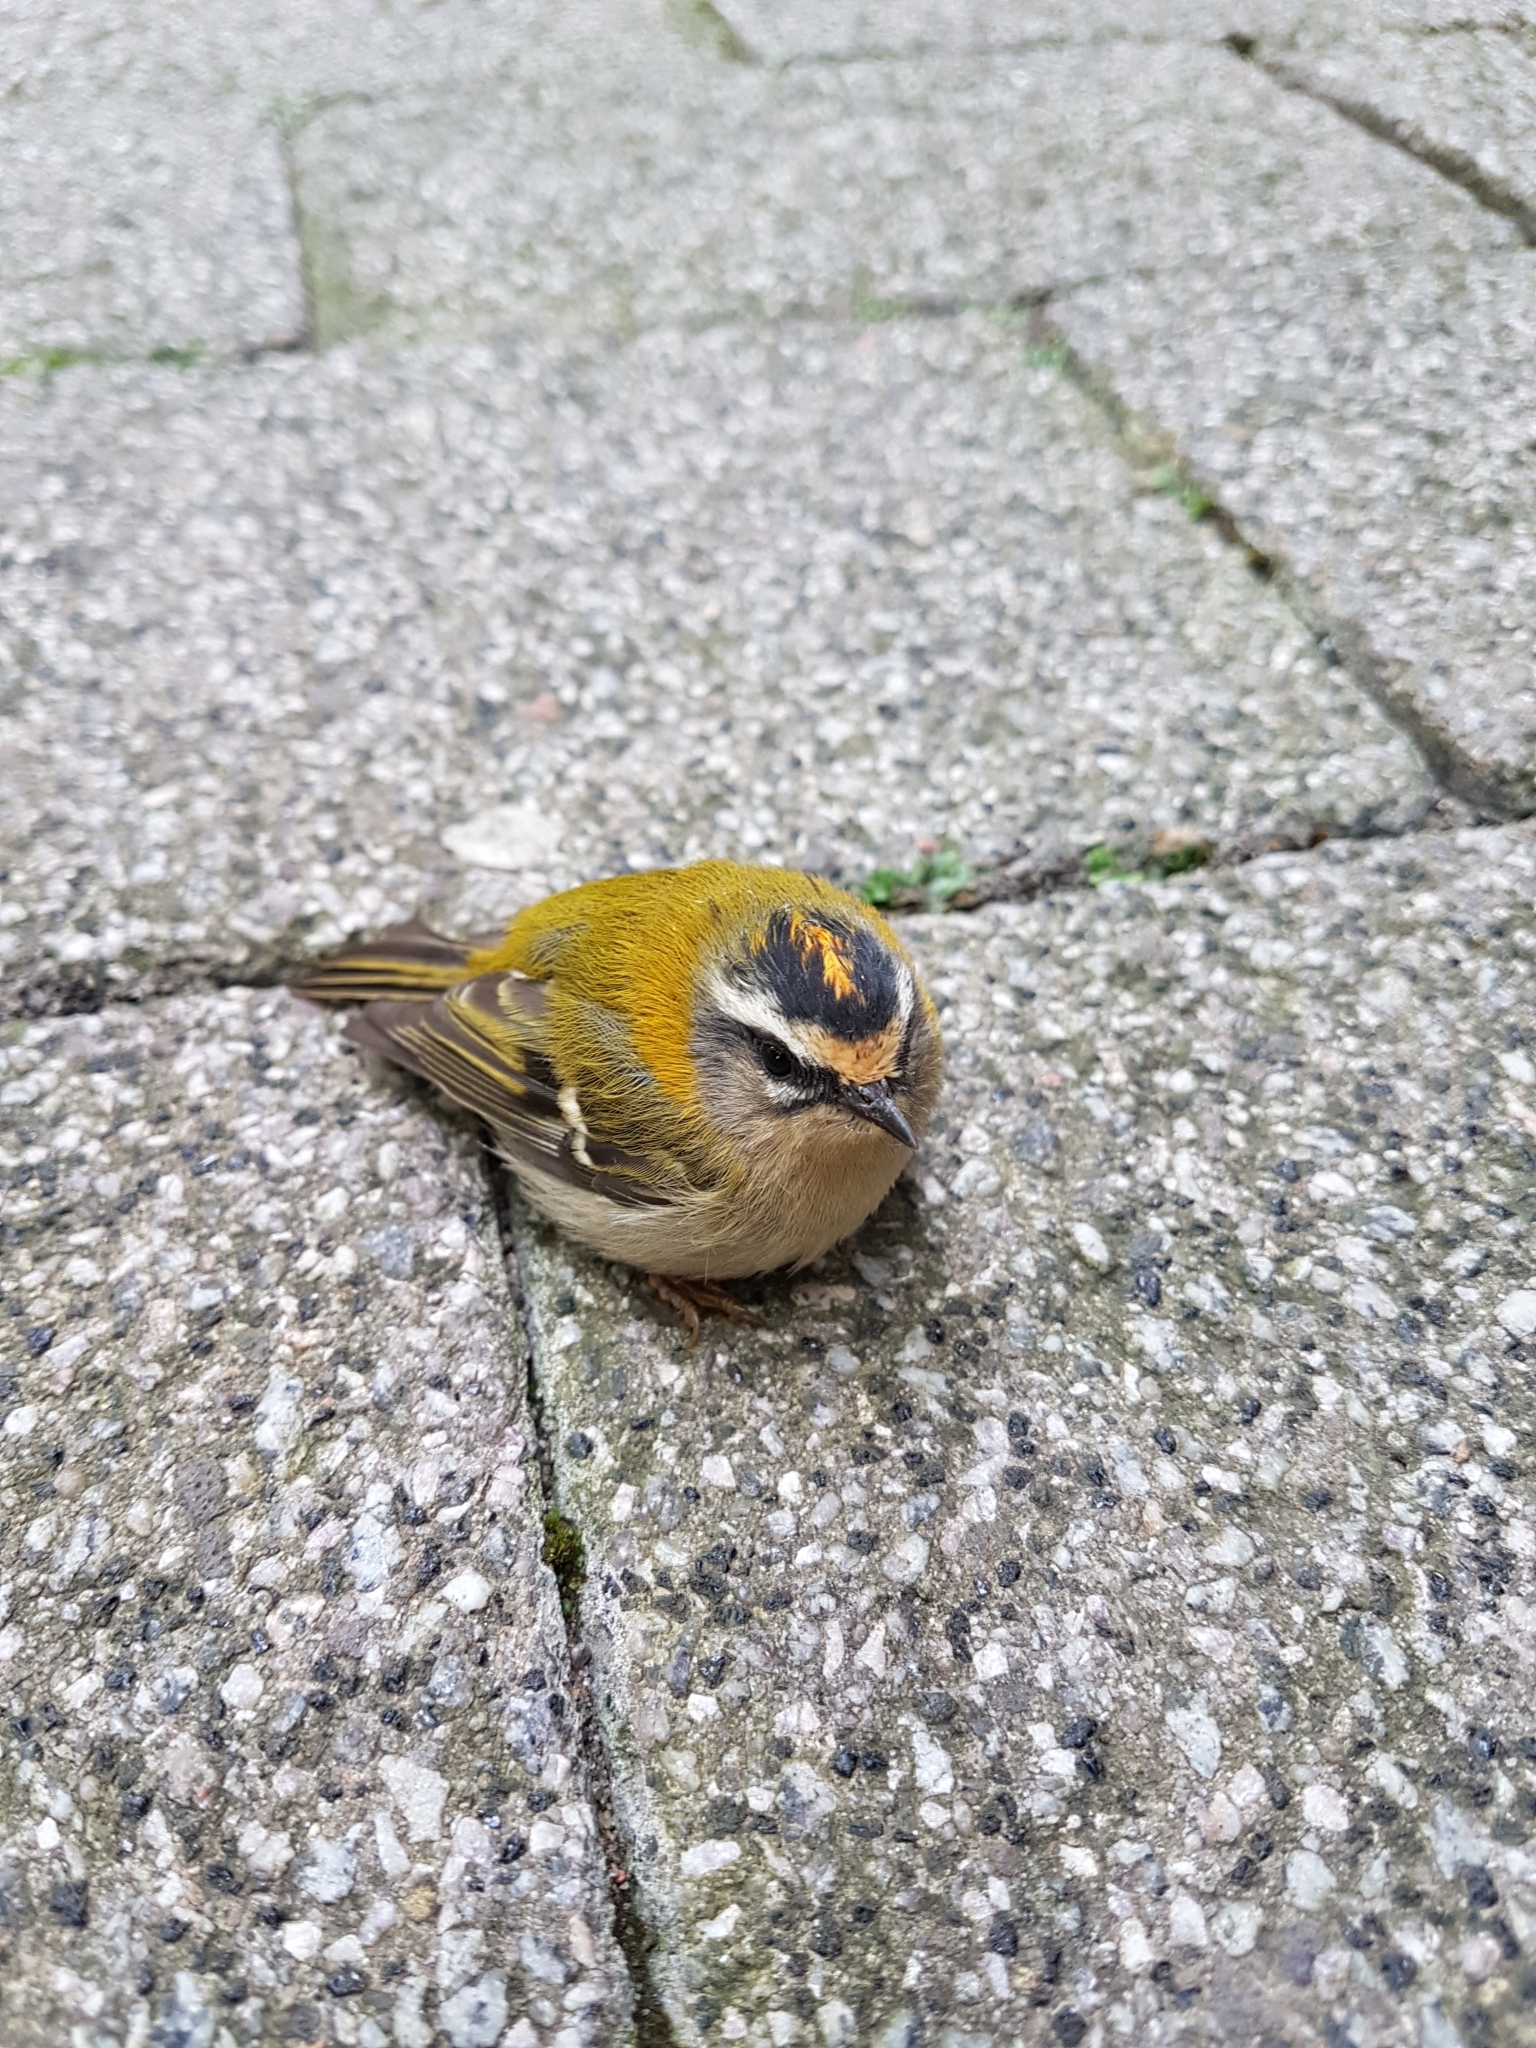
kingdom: Animalia
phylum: Chordata
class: Aves
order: Passeriformes
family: Regulidae
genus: Regulus
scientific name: Regulus ignicapilla
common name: Firecrest
